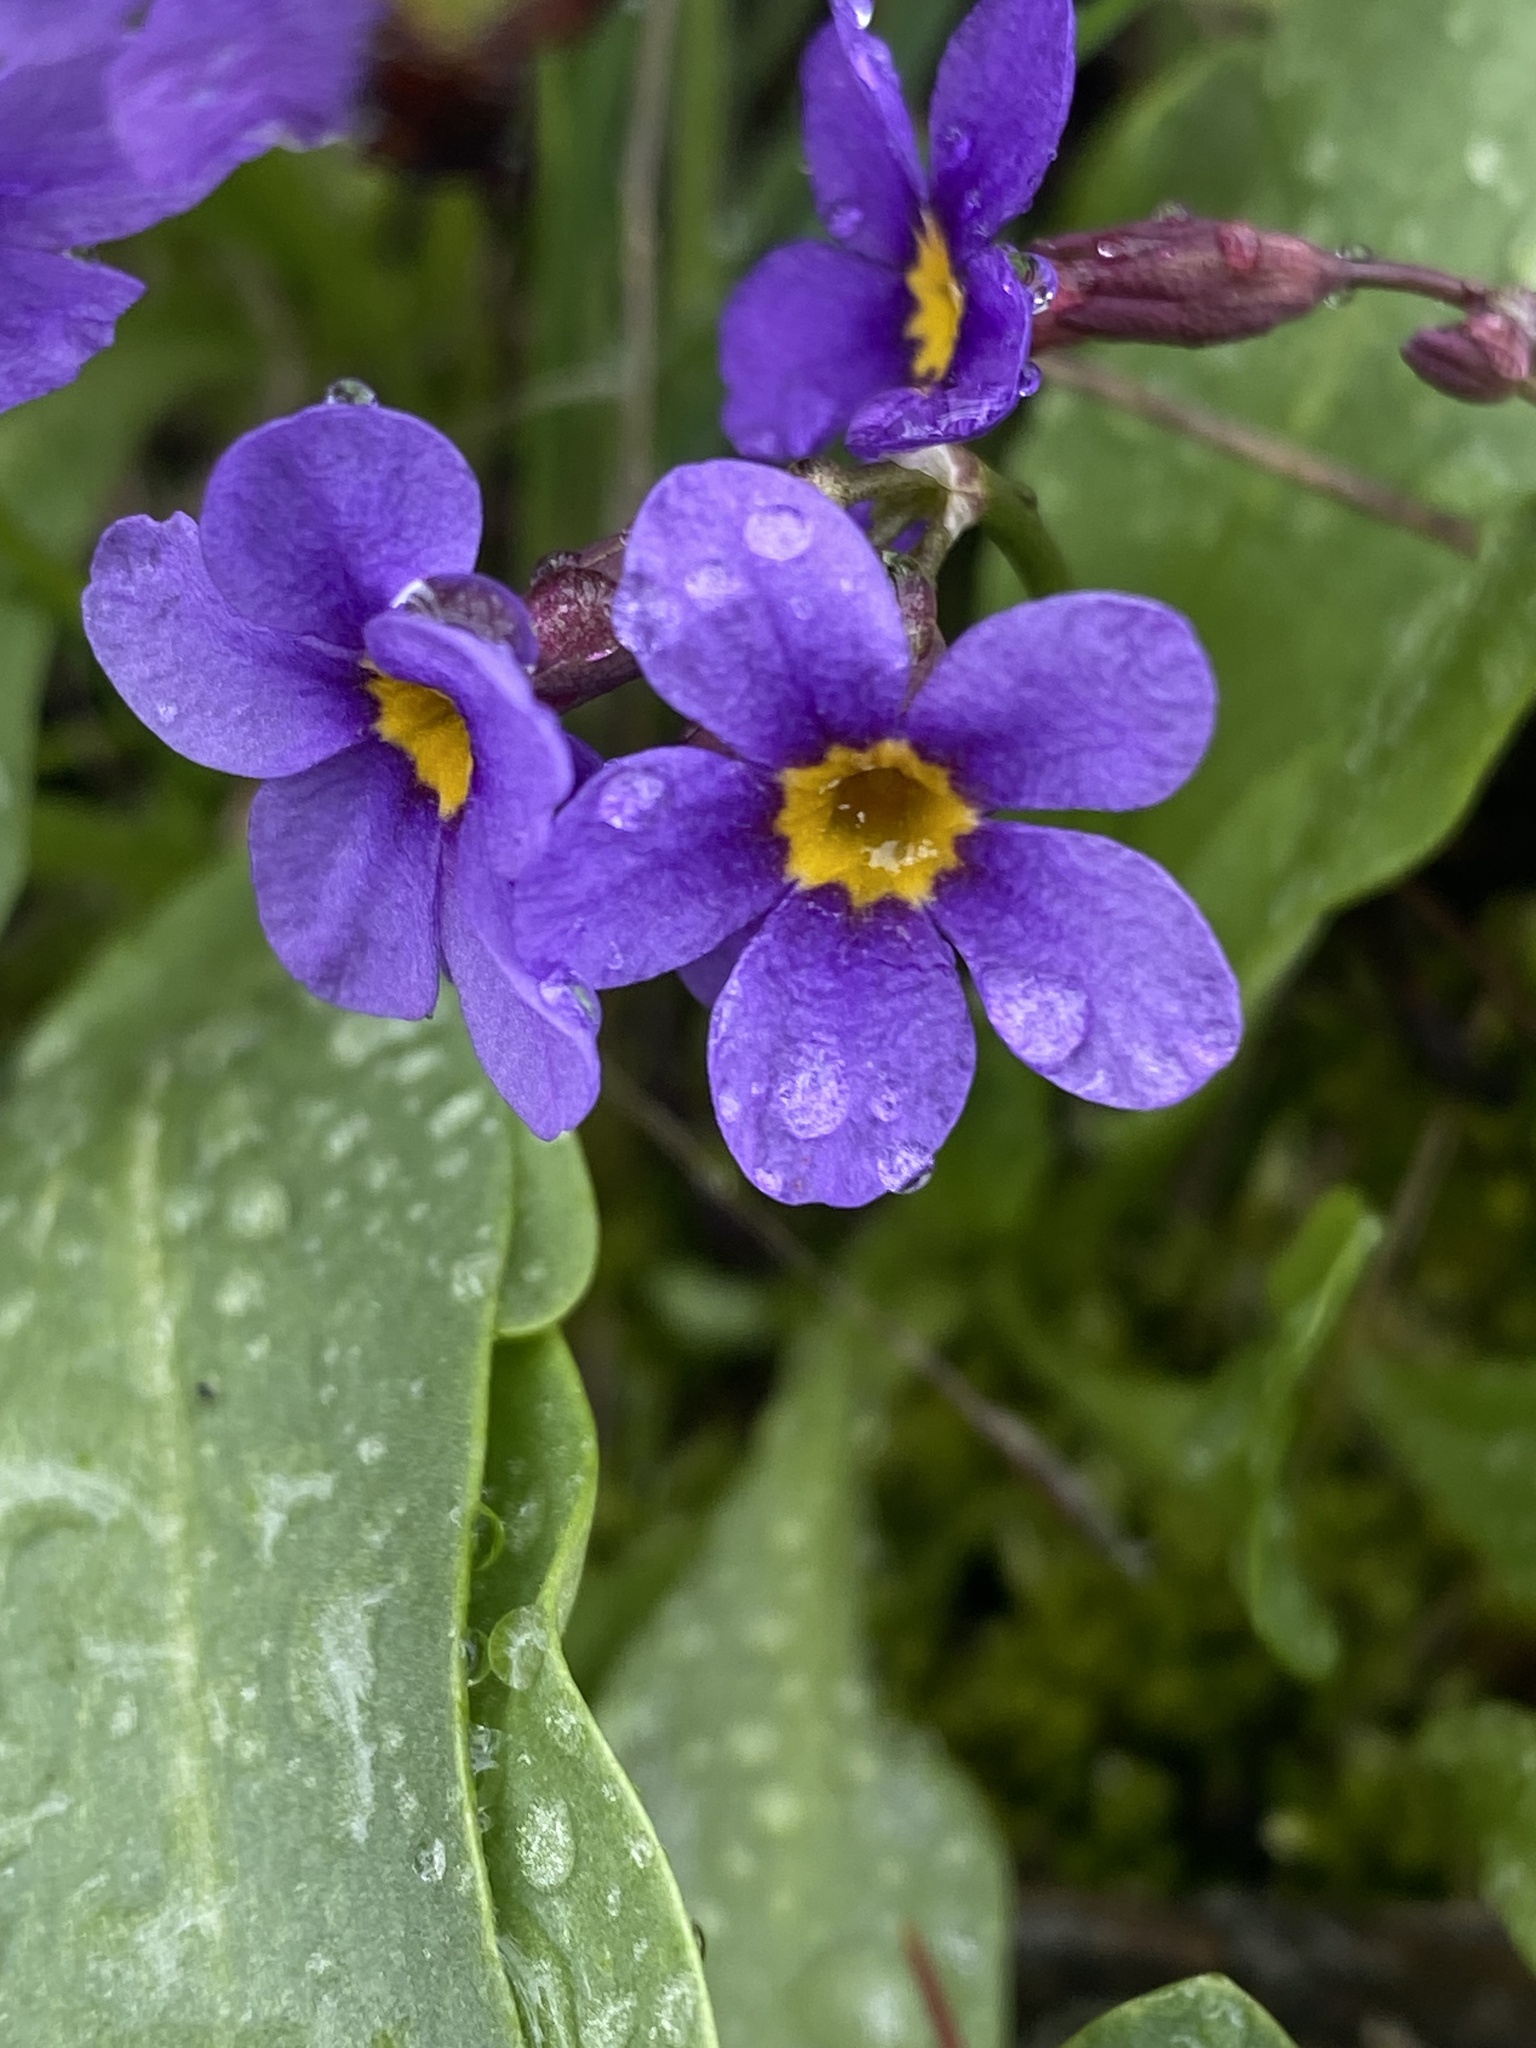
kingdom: Plantae
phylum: Tracheophyta
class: Magnoliopsida
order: Ericales
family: Primulaceae
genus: Primula
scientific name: Primula cusickiana
